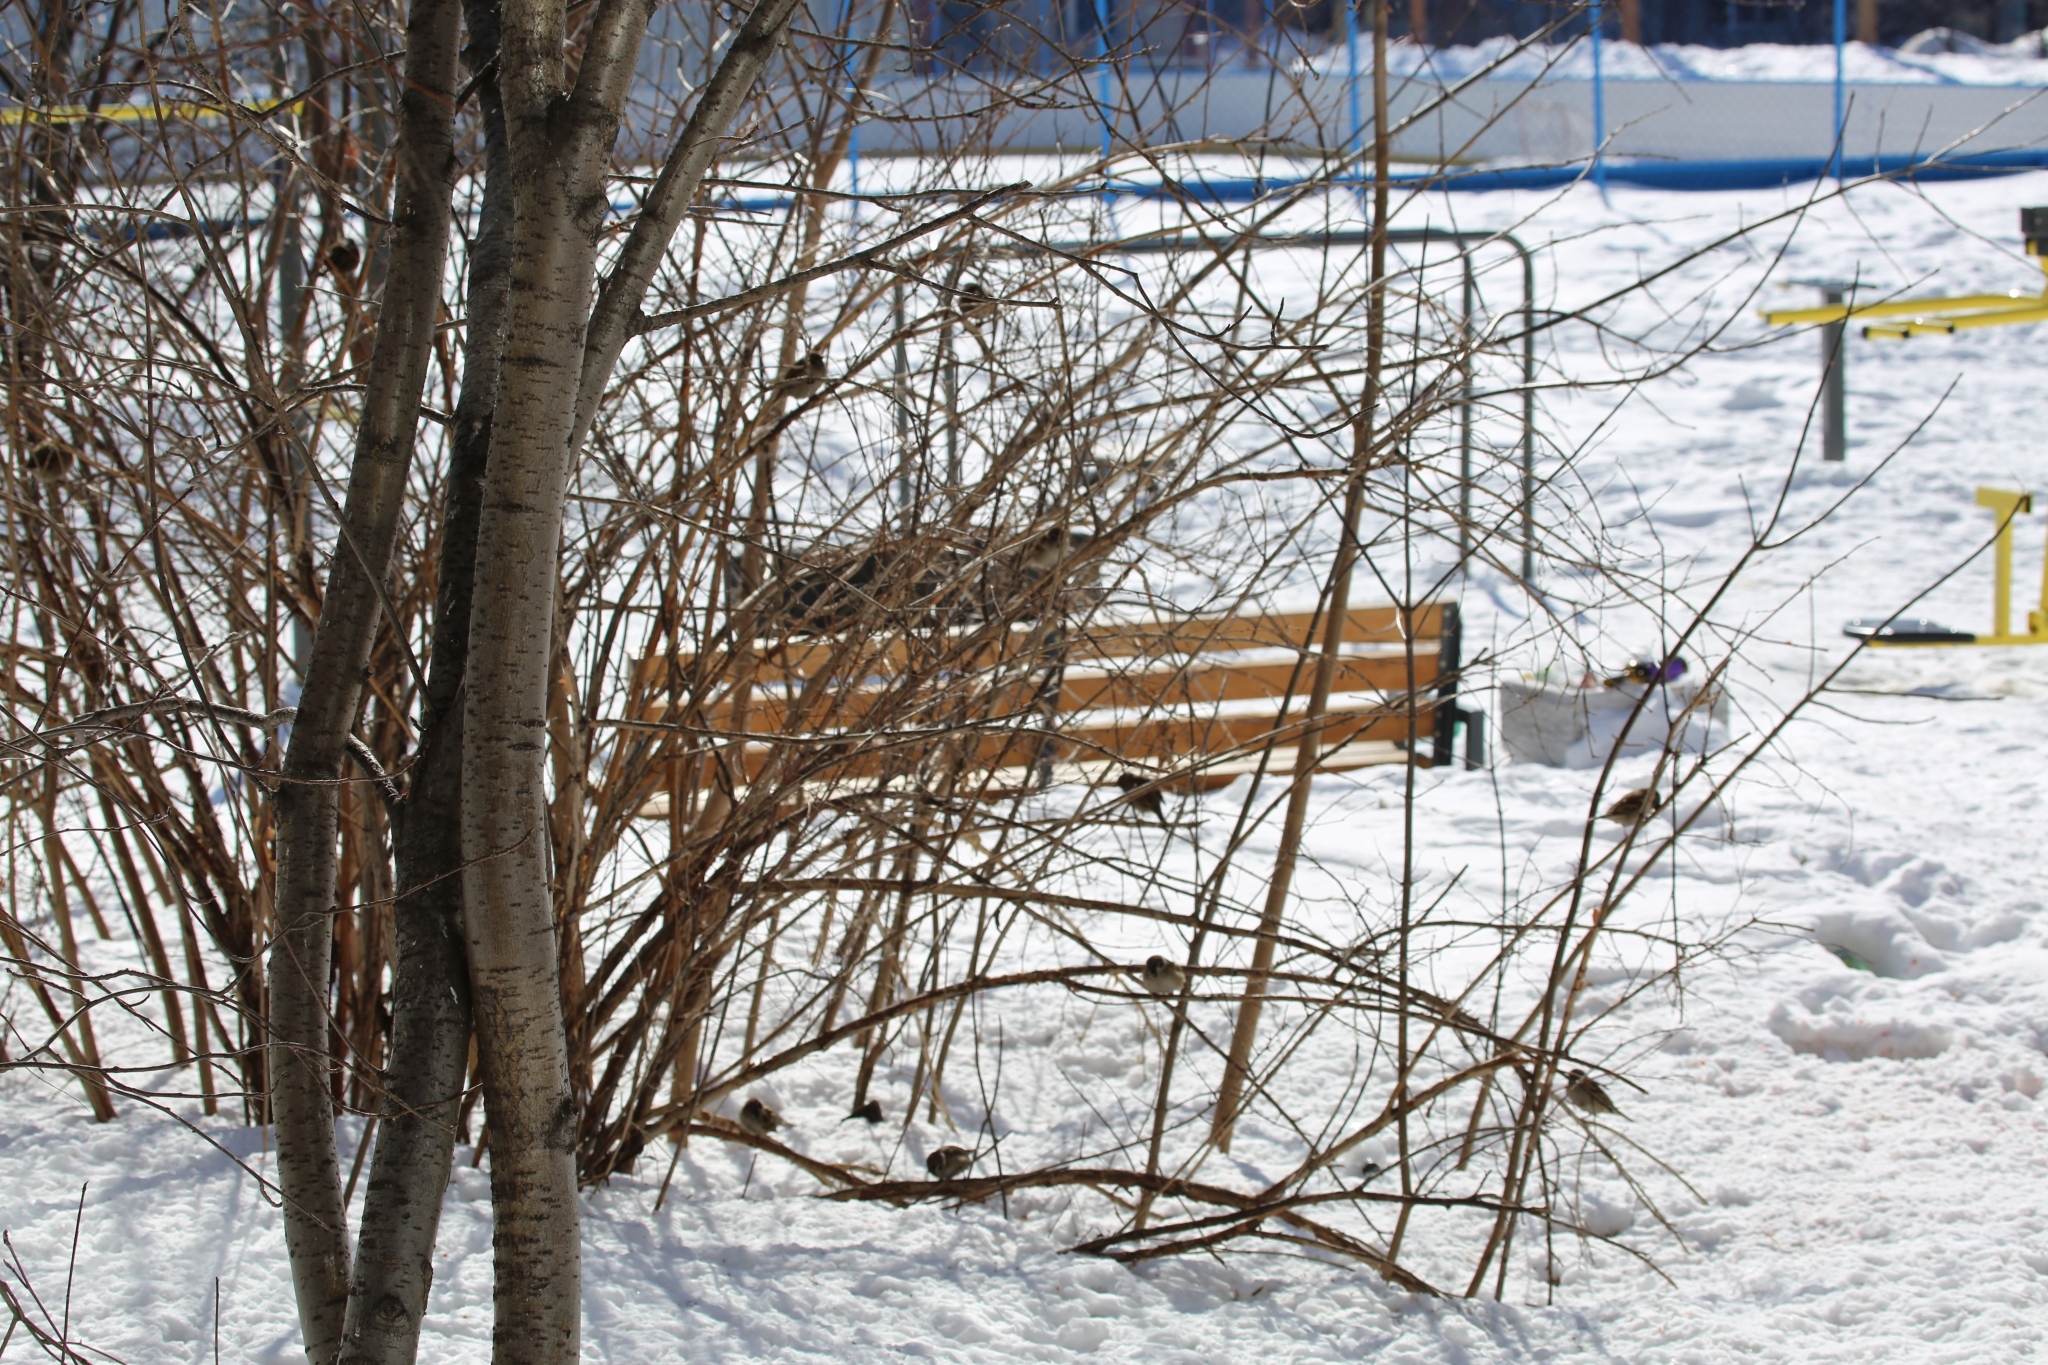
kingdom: Animalia
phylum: Chordata
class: Aves
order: Passeriformes
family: Passeridae
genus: Passer
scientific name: Passer montanus
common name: Eurasian tree sparrow
